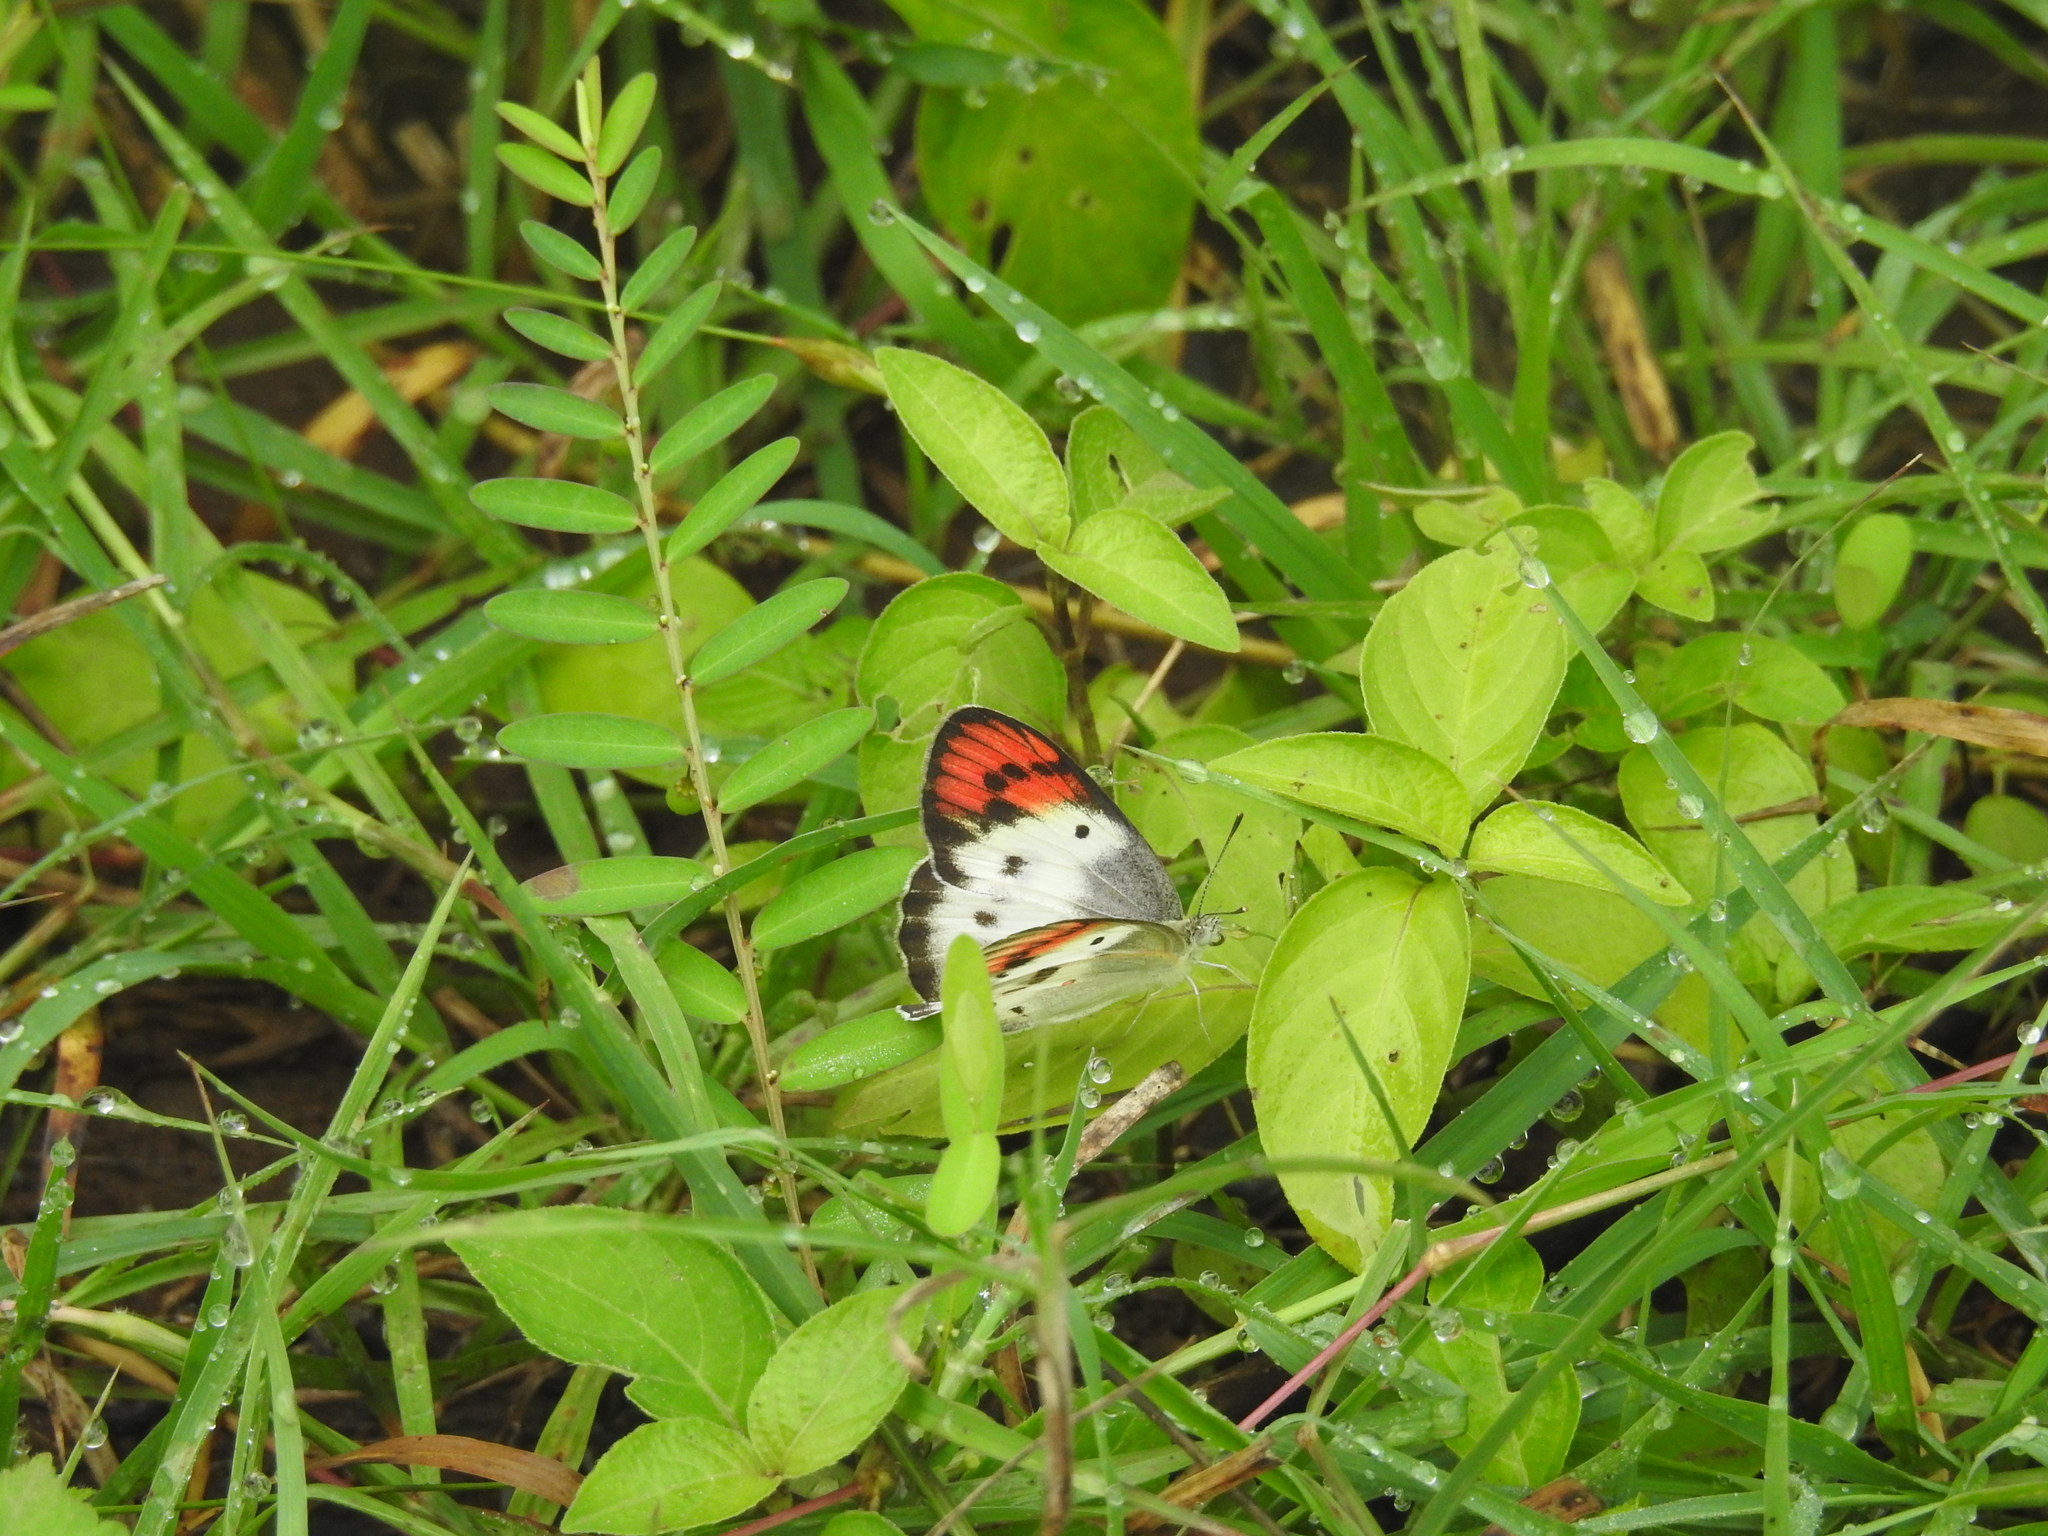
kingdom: Animalia
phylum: Arthropoda
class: Insecta
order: Lepidoptera
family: Pieridae
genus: Colotis
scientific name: Colotis danae
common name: Crimson tip
